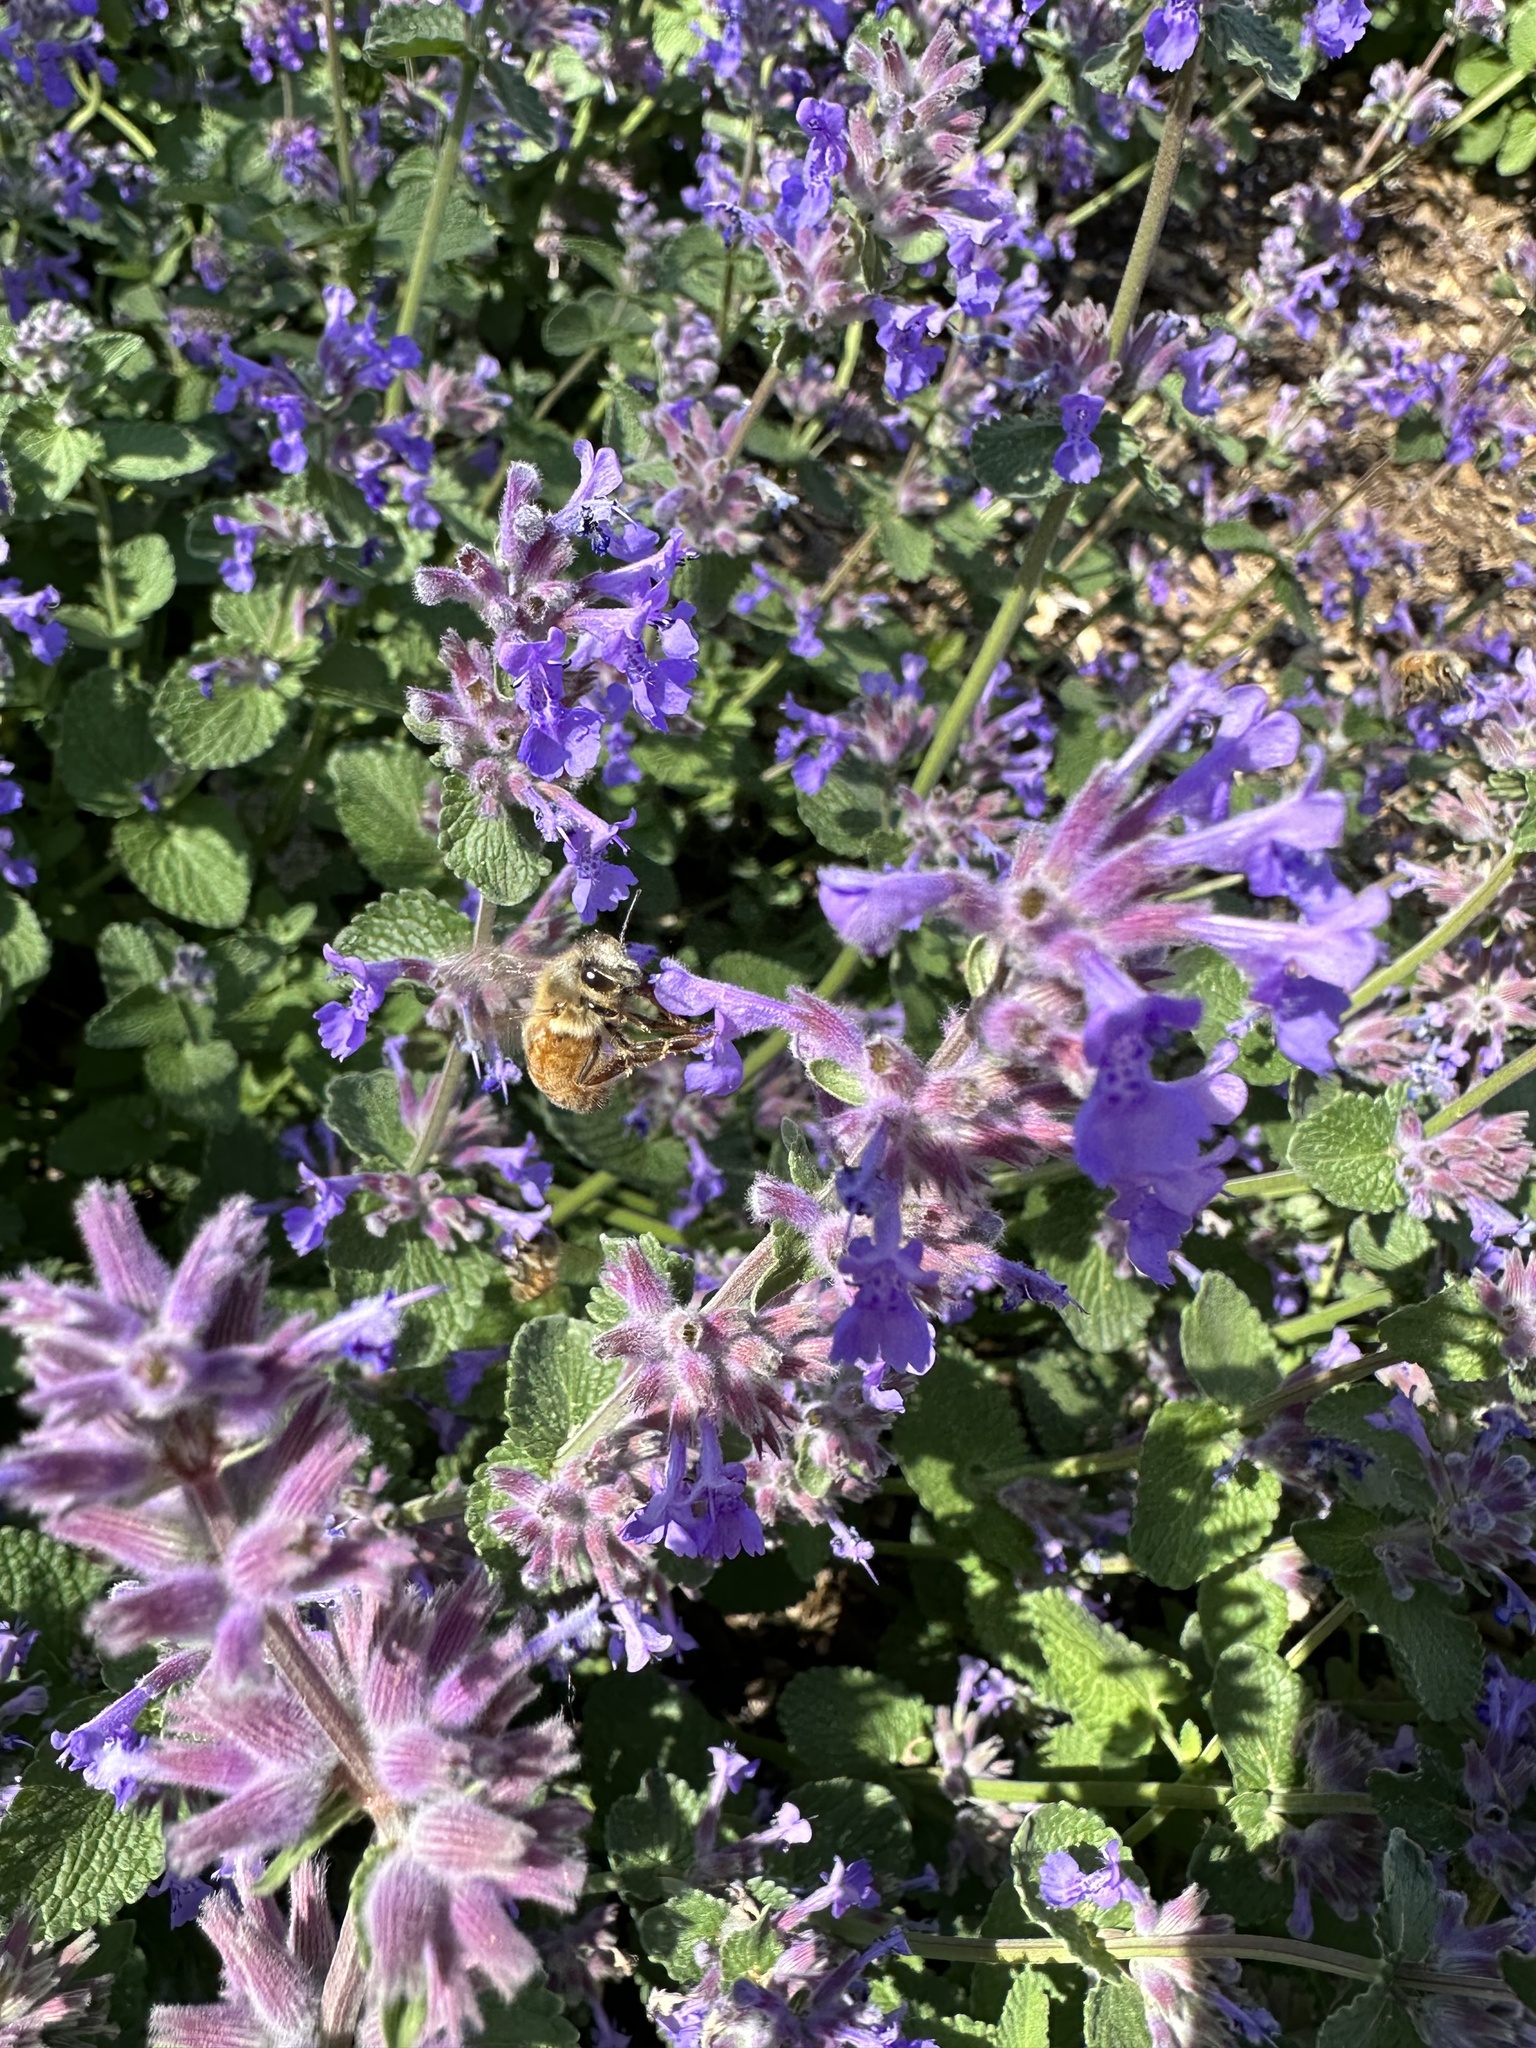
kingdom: Animalia
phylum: Arthropoda
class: Insecta
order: Hymenoptera
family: Apidae
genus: Apis
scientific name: Apis mellifera
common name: Honey bee
